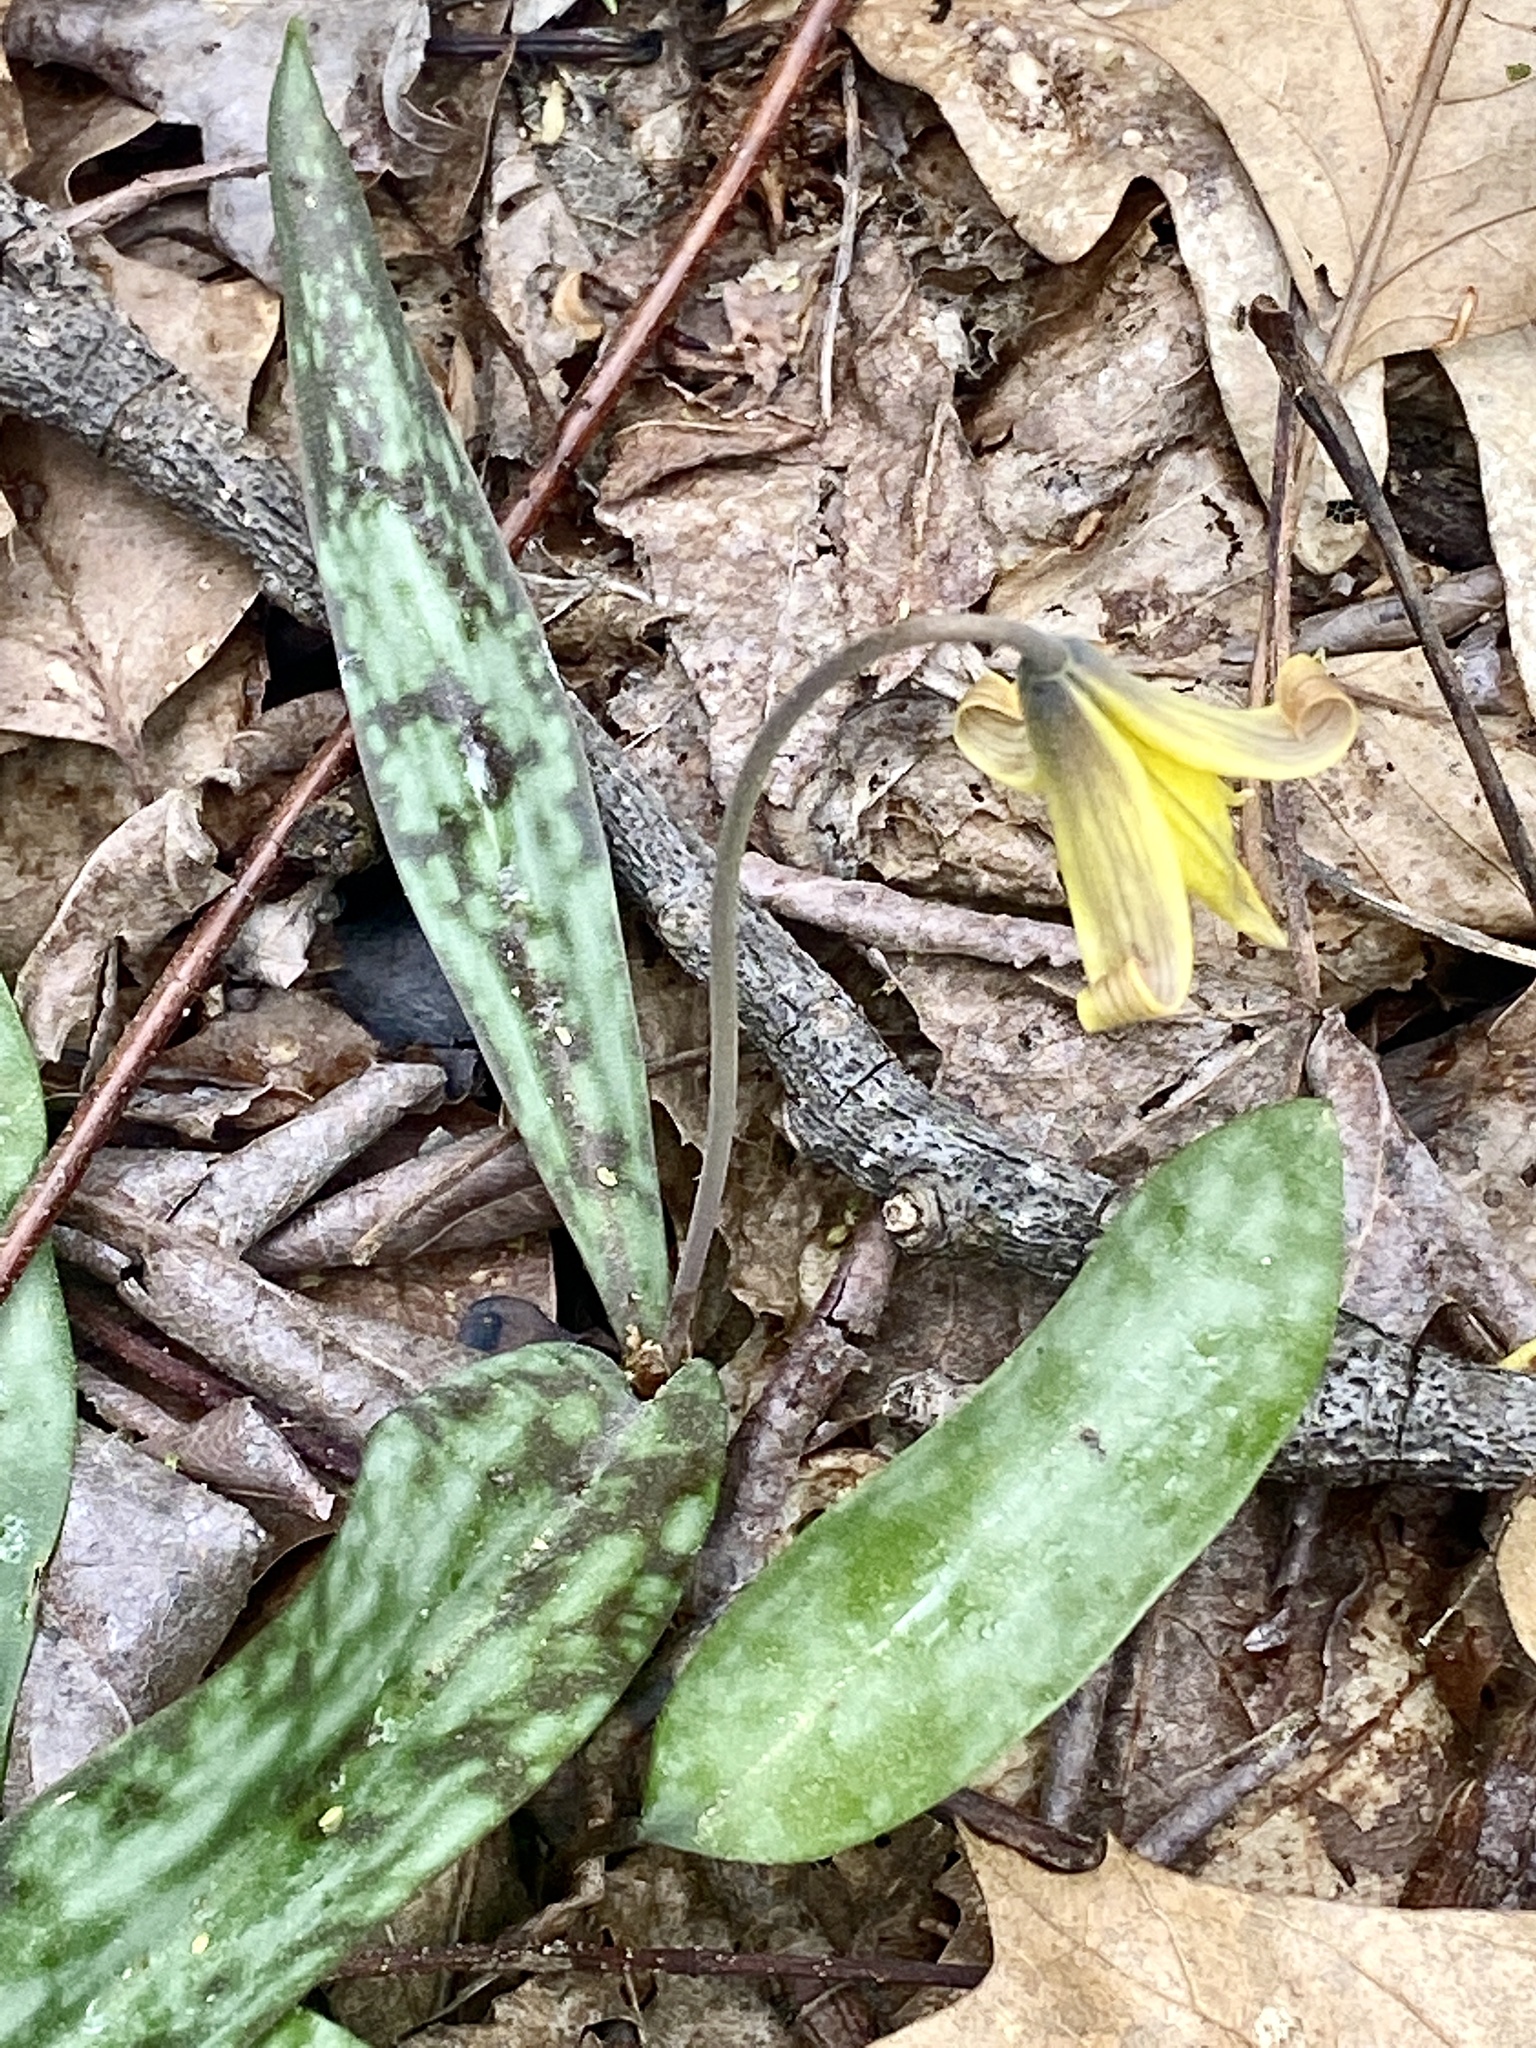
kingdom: Plantae
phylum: Tracheophyta
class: Liliopsida
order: Liliales
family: Liliaceae
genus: Erythronium
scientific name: Erythronium americanum
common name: Yellow adder's-tongue
